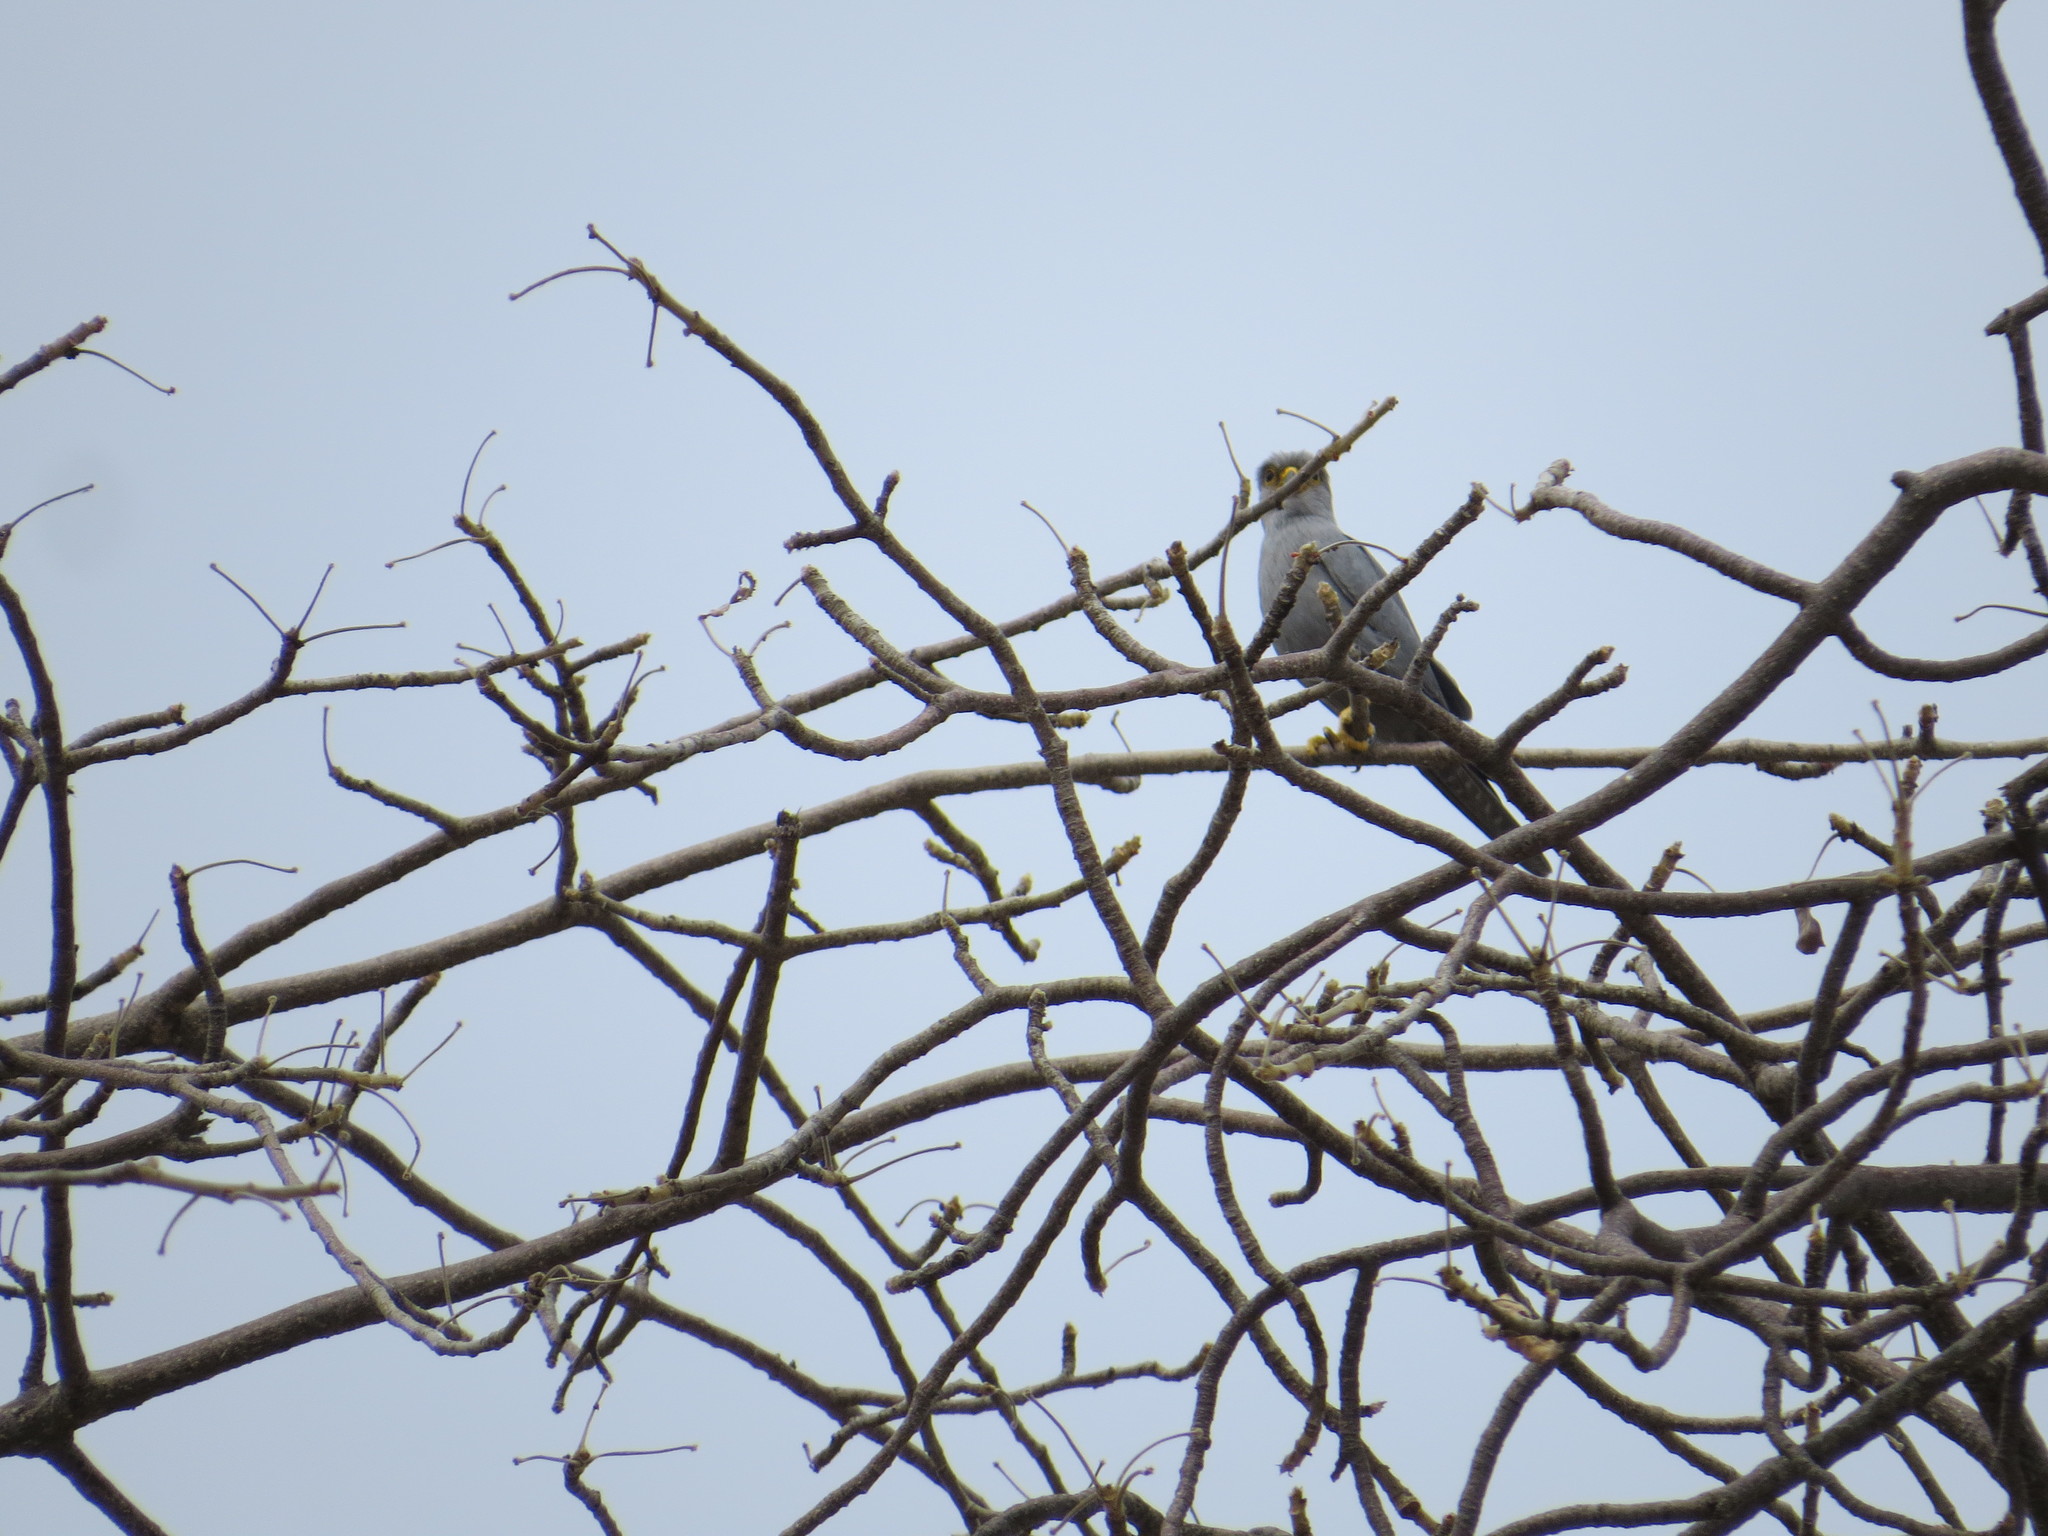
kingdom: Animalia
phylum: Chordata
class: Aves
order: Falconiformes
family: Falconidae
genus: Falco
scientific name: Falco ardosiaceus
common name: Grey kestrel
